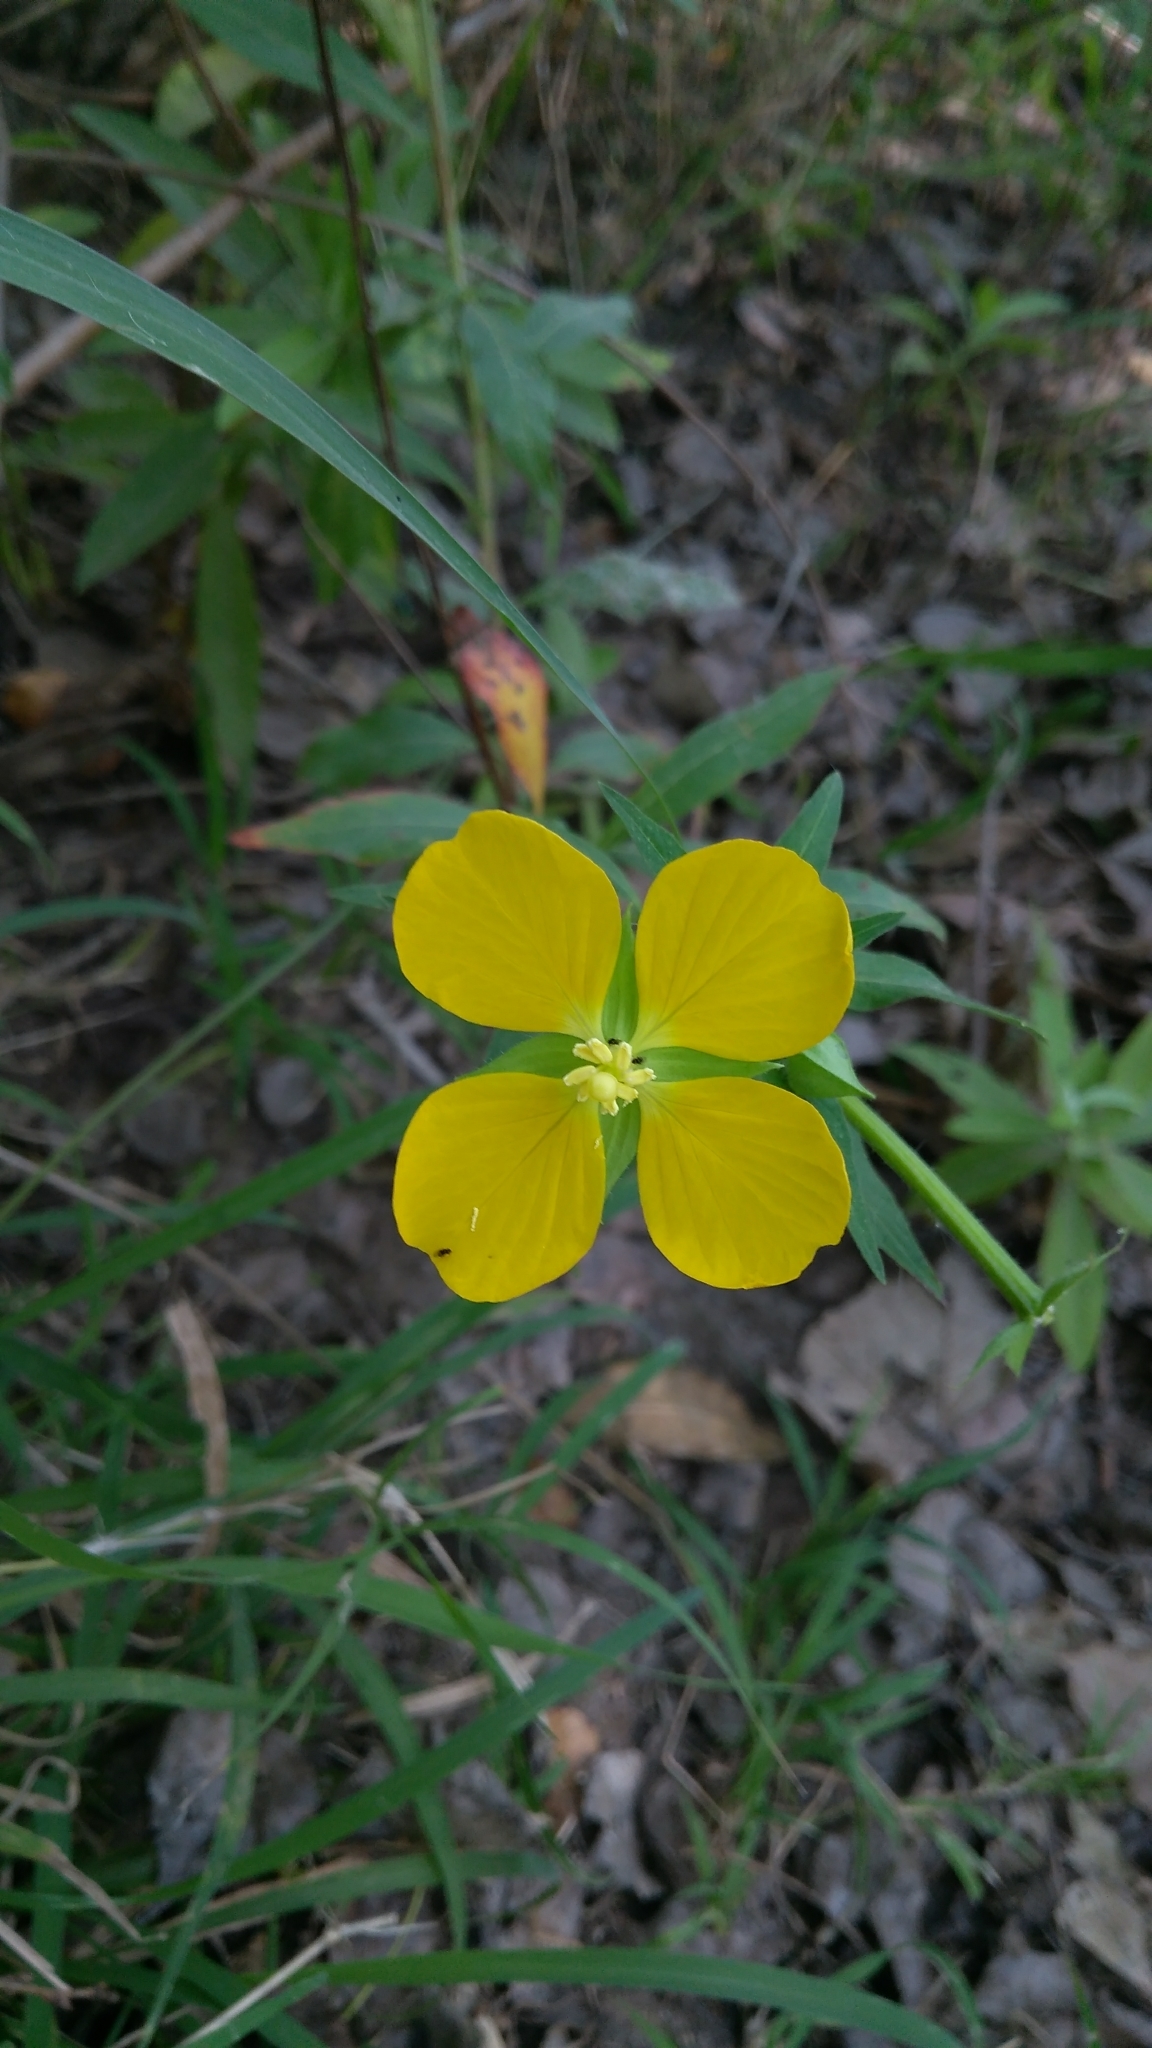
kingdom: Plantae
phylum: Tracheophyta
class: Magnoliopsida
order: Myrtales
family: Onagraceae
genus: Ludwigia
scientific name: Ludwigia octovalvis
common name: Water-primrose
